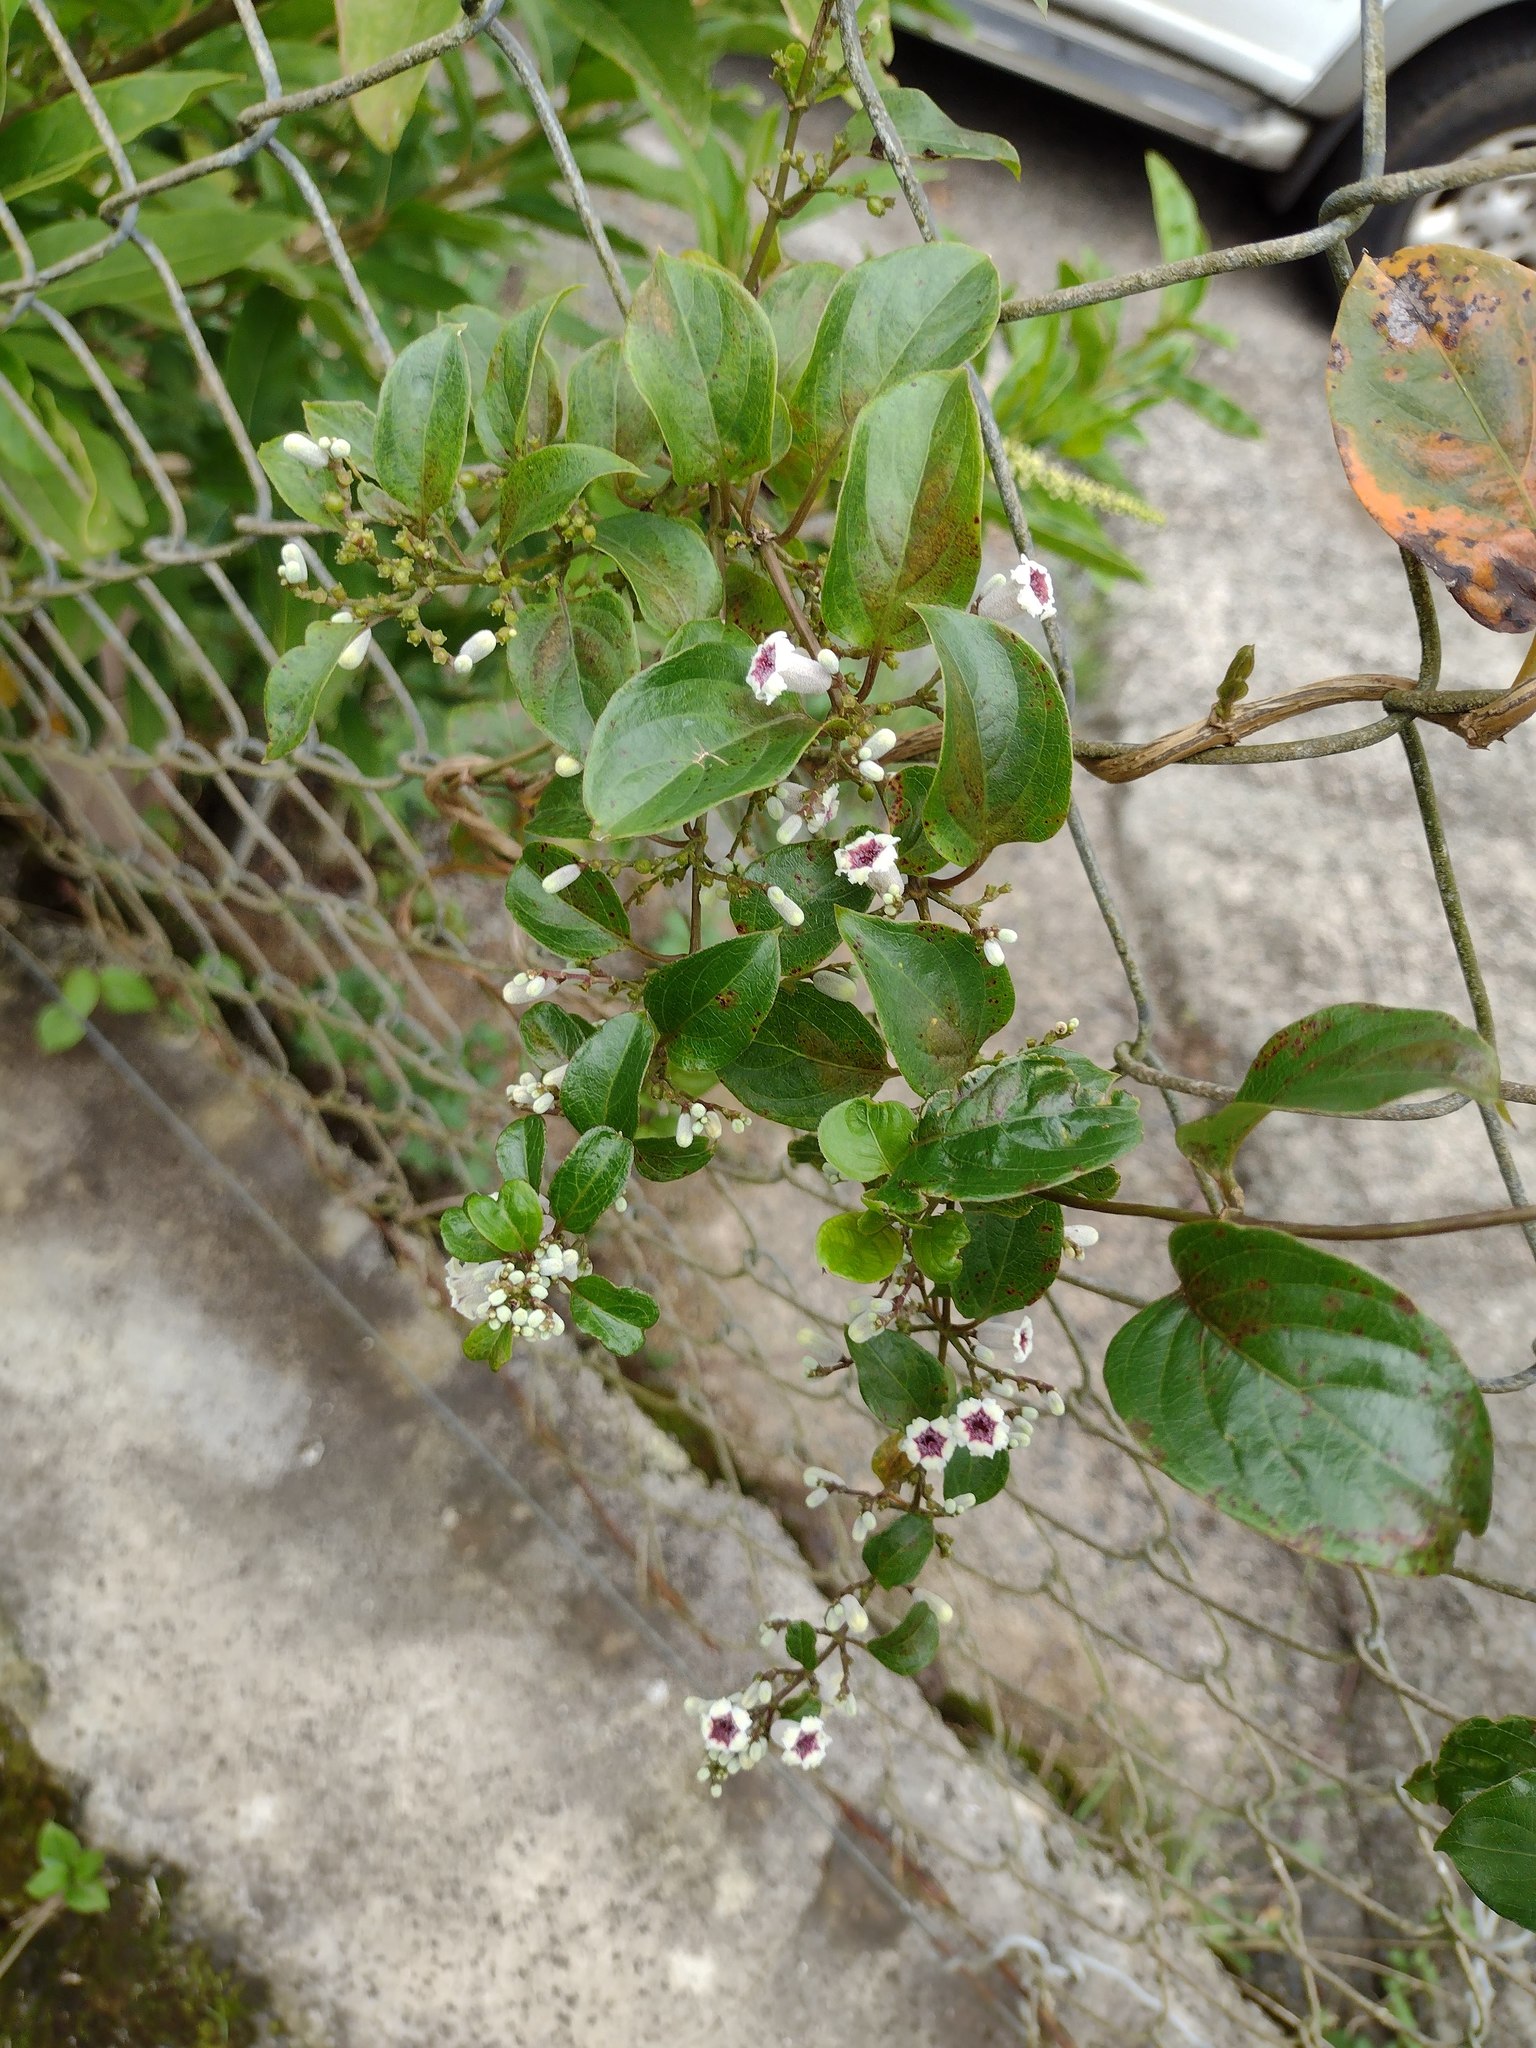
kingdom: Plantae
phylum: Tracheophyta
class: Magnoliopsida
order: Gentianales
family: Rubiaceae
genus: Paederia
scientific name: Paederia foetida
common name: Stinkvine
